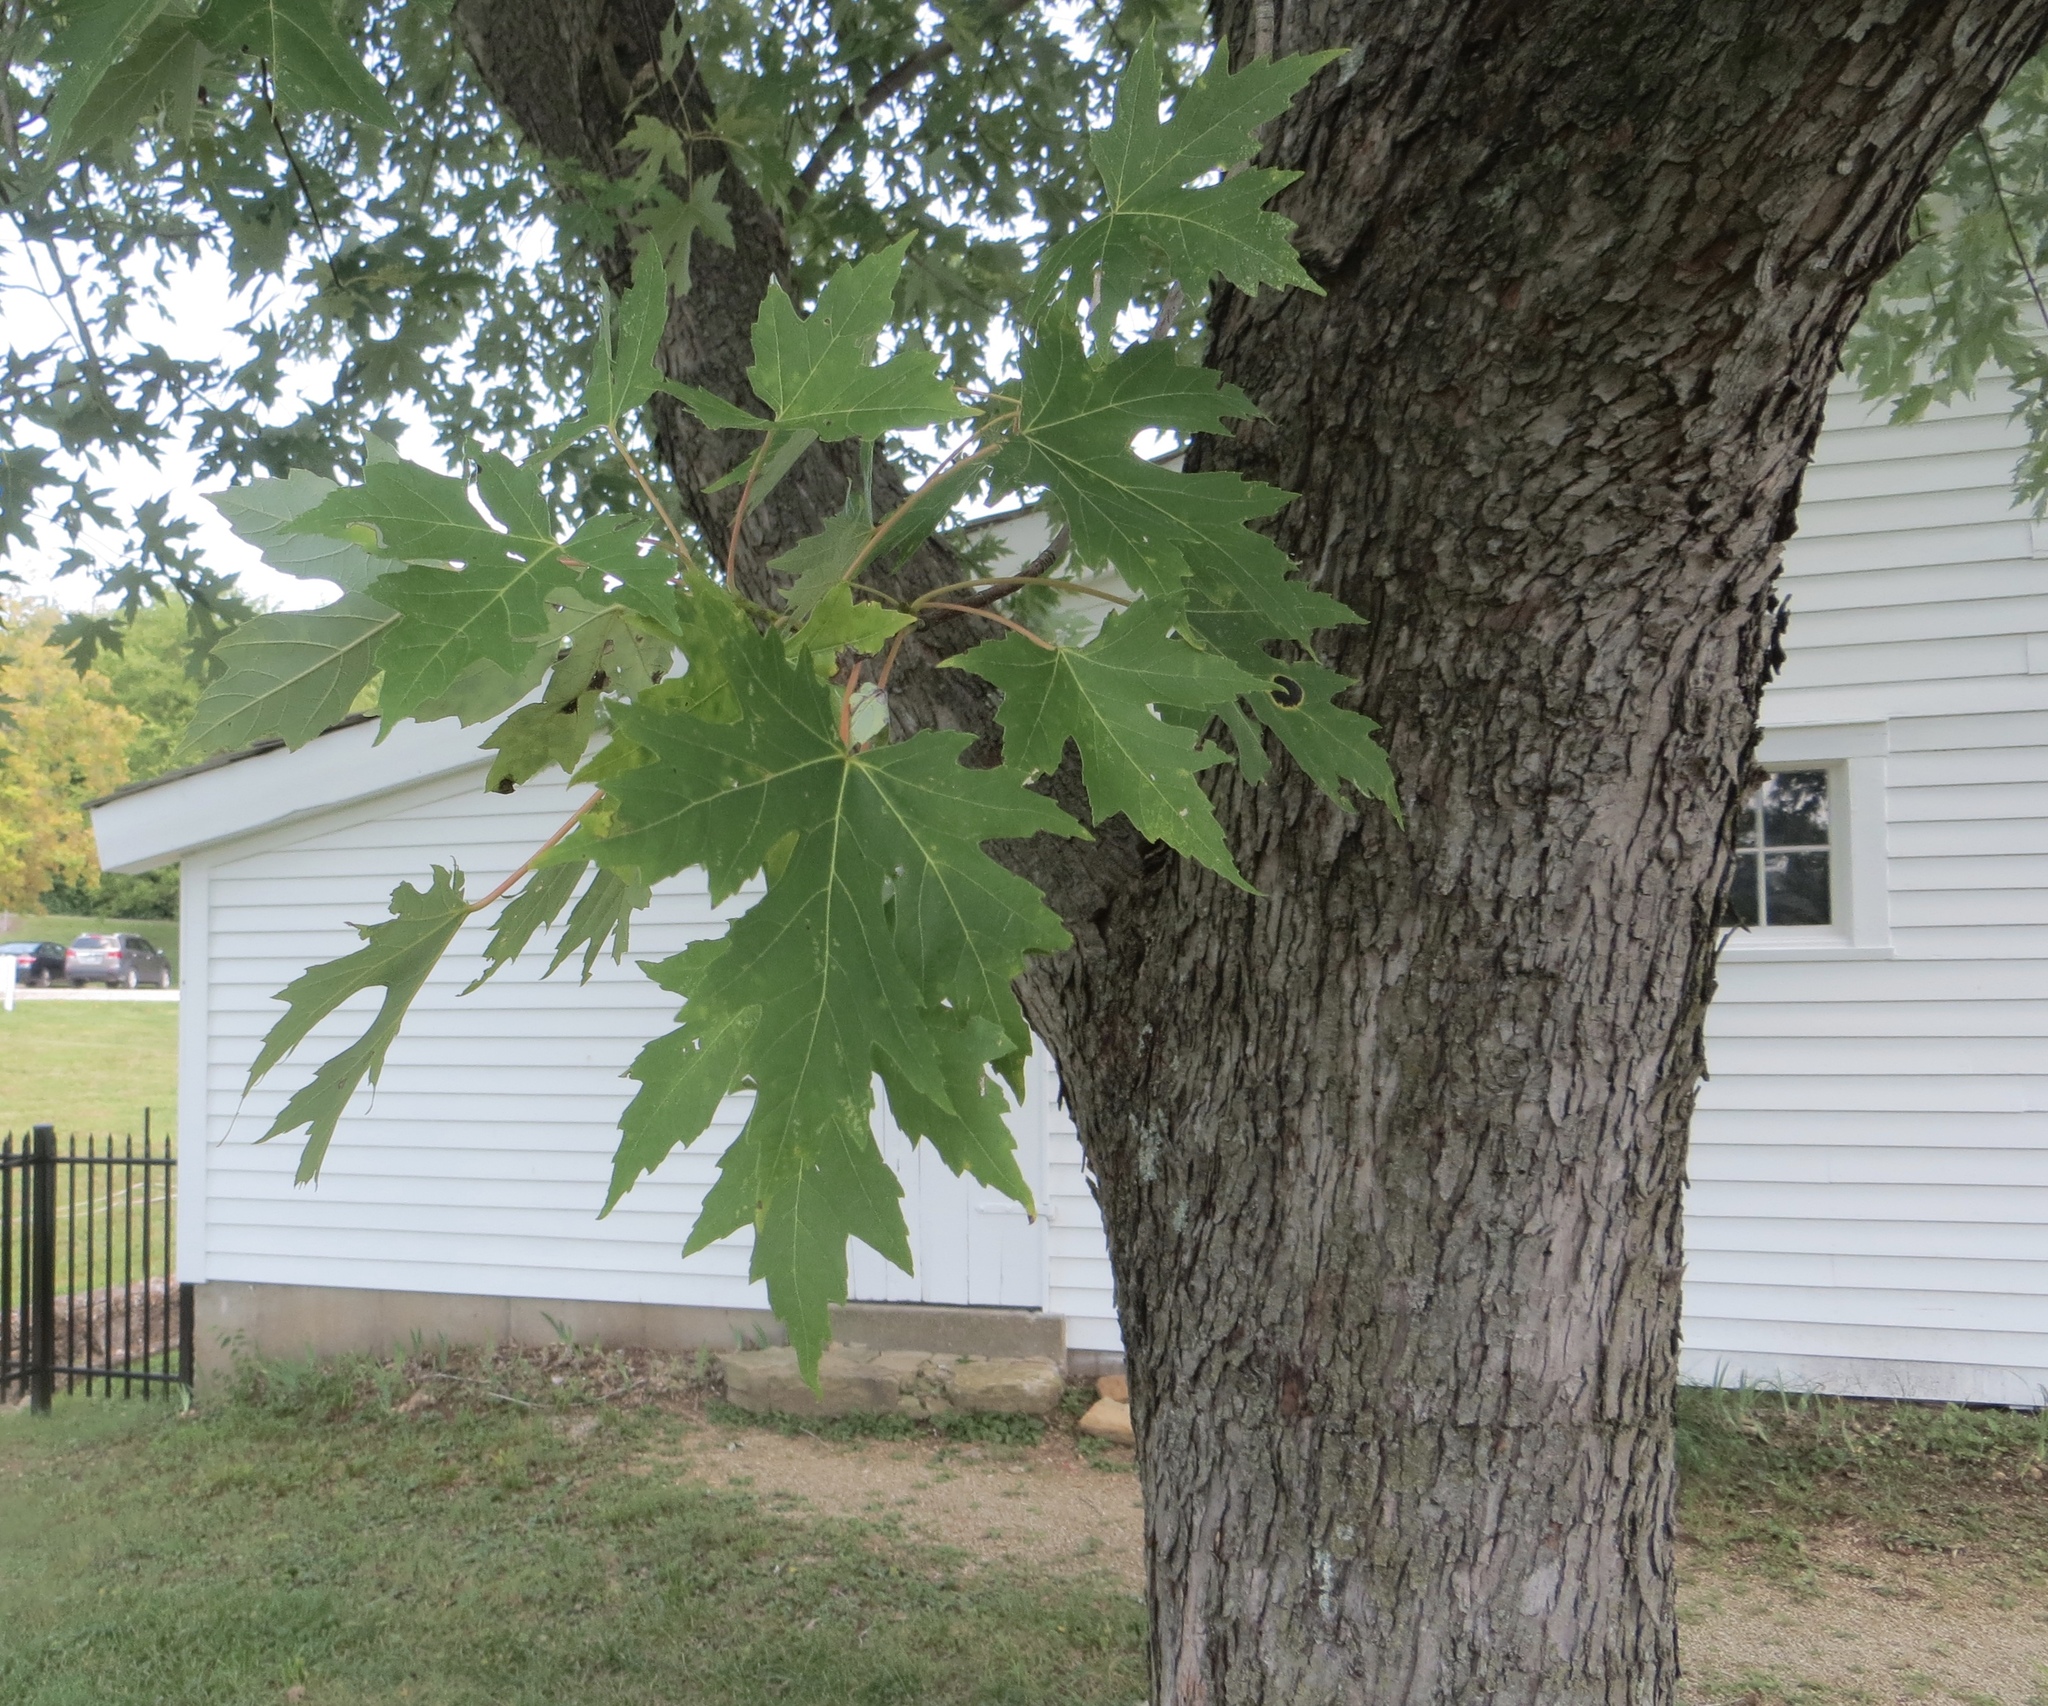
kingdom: Plantae
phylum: Tracheophyta
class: Magnoliopsida
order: Sapindales
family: Sapindaceae
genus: Acer
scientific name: Acer saccharinum
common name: Silver maple
